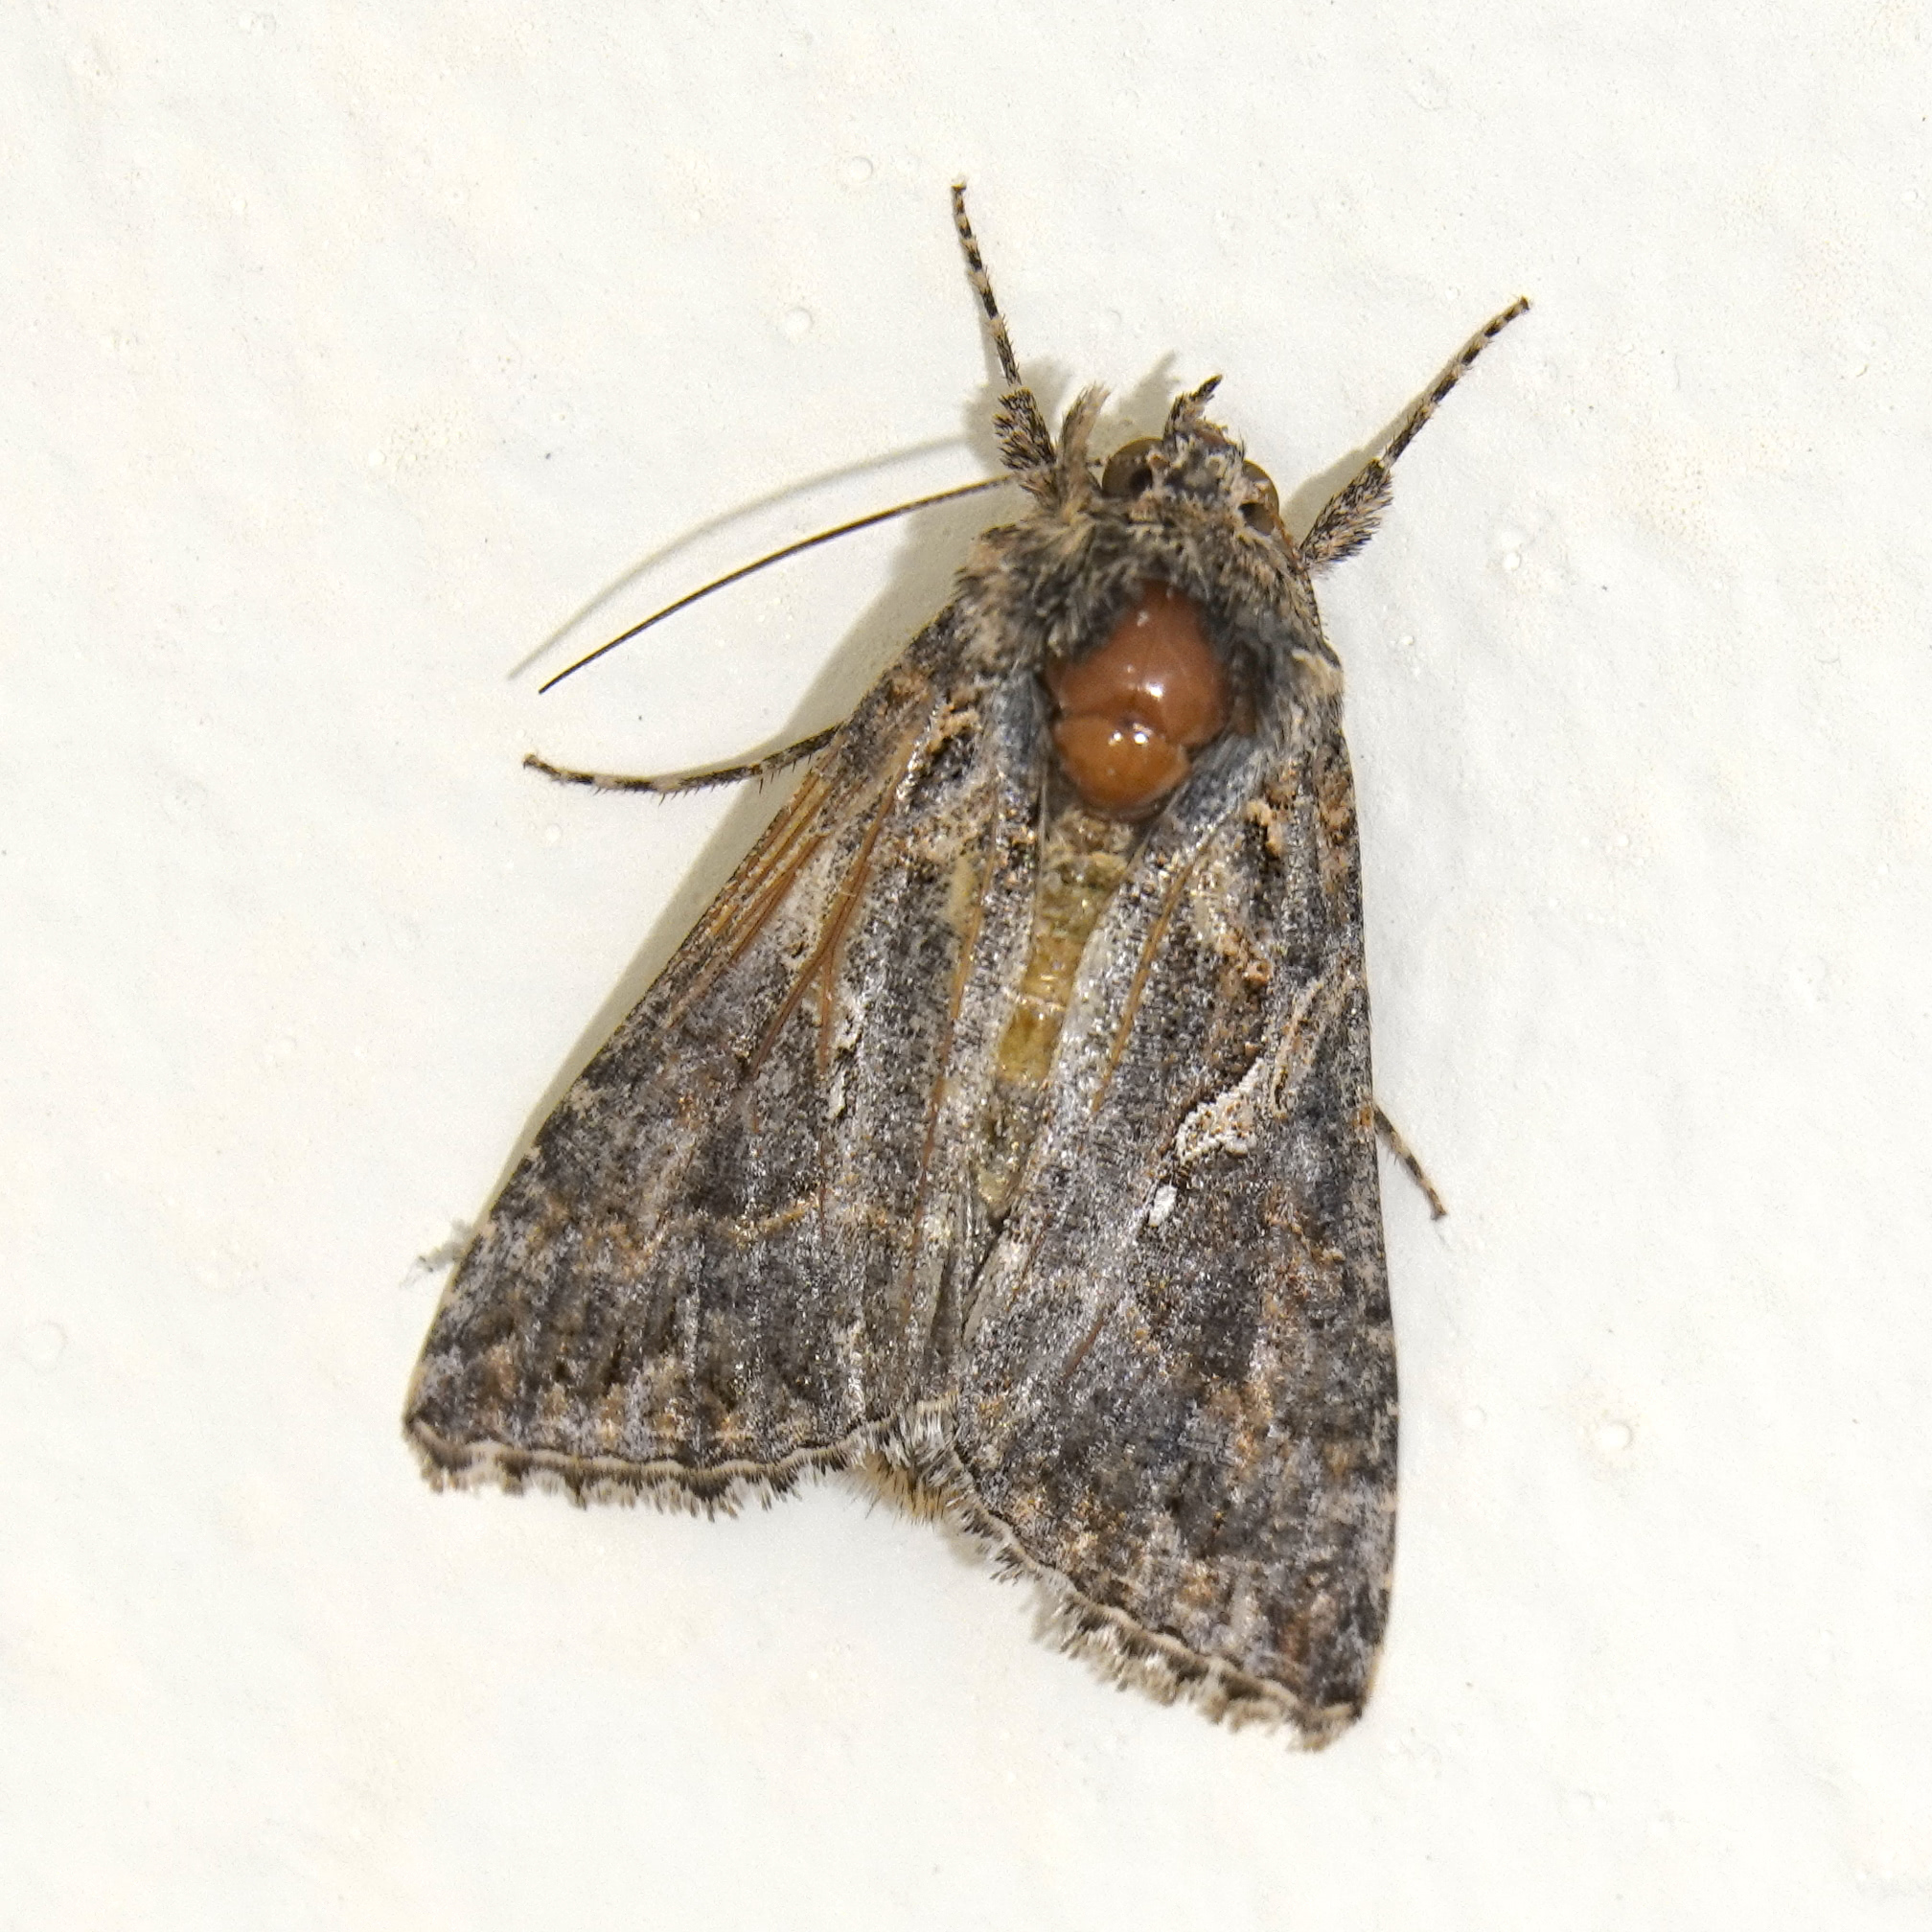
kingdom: Animalia
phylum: Arthropoda
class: Insecta
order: Lepidoptera
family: Noctuidae
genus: Trichoplusia
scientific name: Trichoplusia ni
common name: Ni moth
